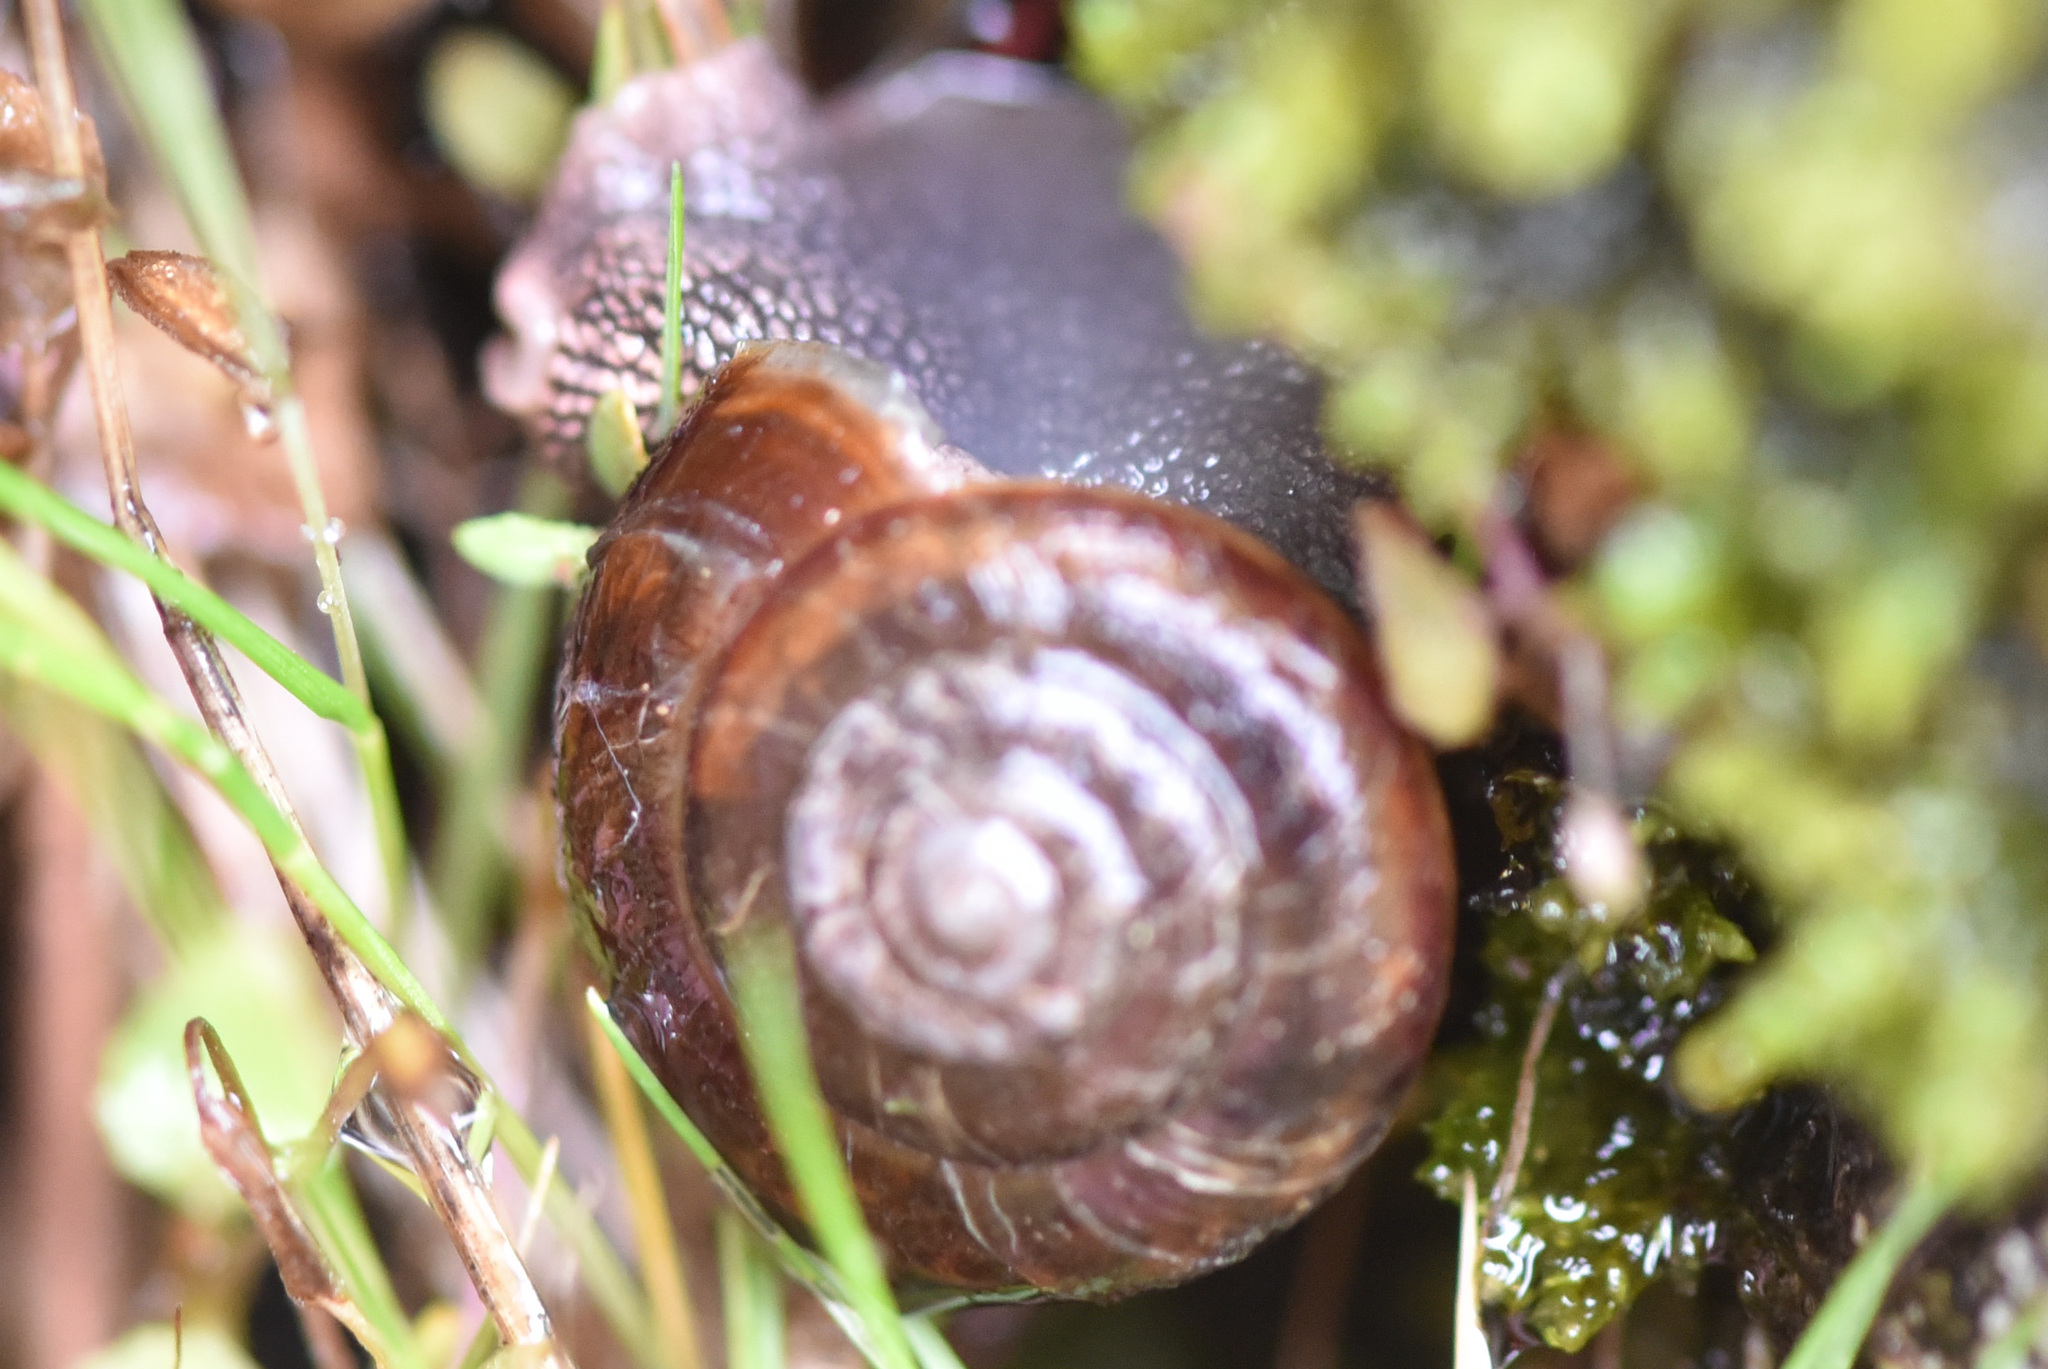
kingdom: Animalia
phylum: Mollusca
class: Gastropoda
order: Stylommatophora
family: Xanthonychidae
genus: Monadenia
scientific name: Monadenia fidelis
